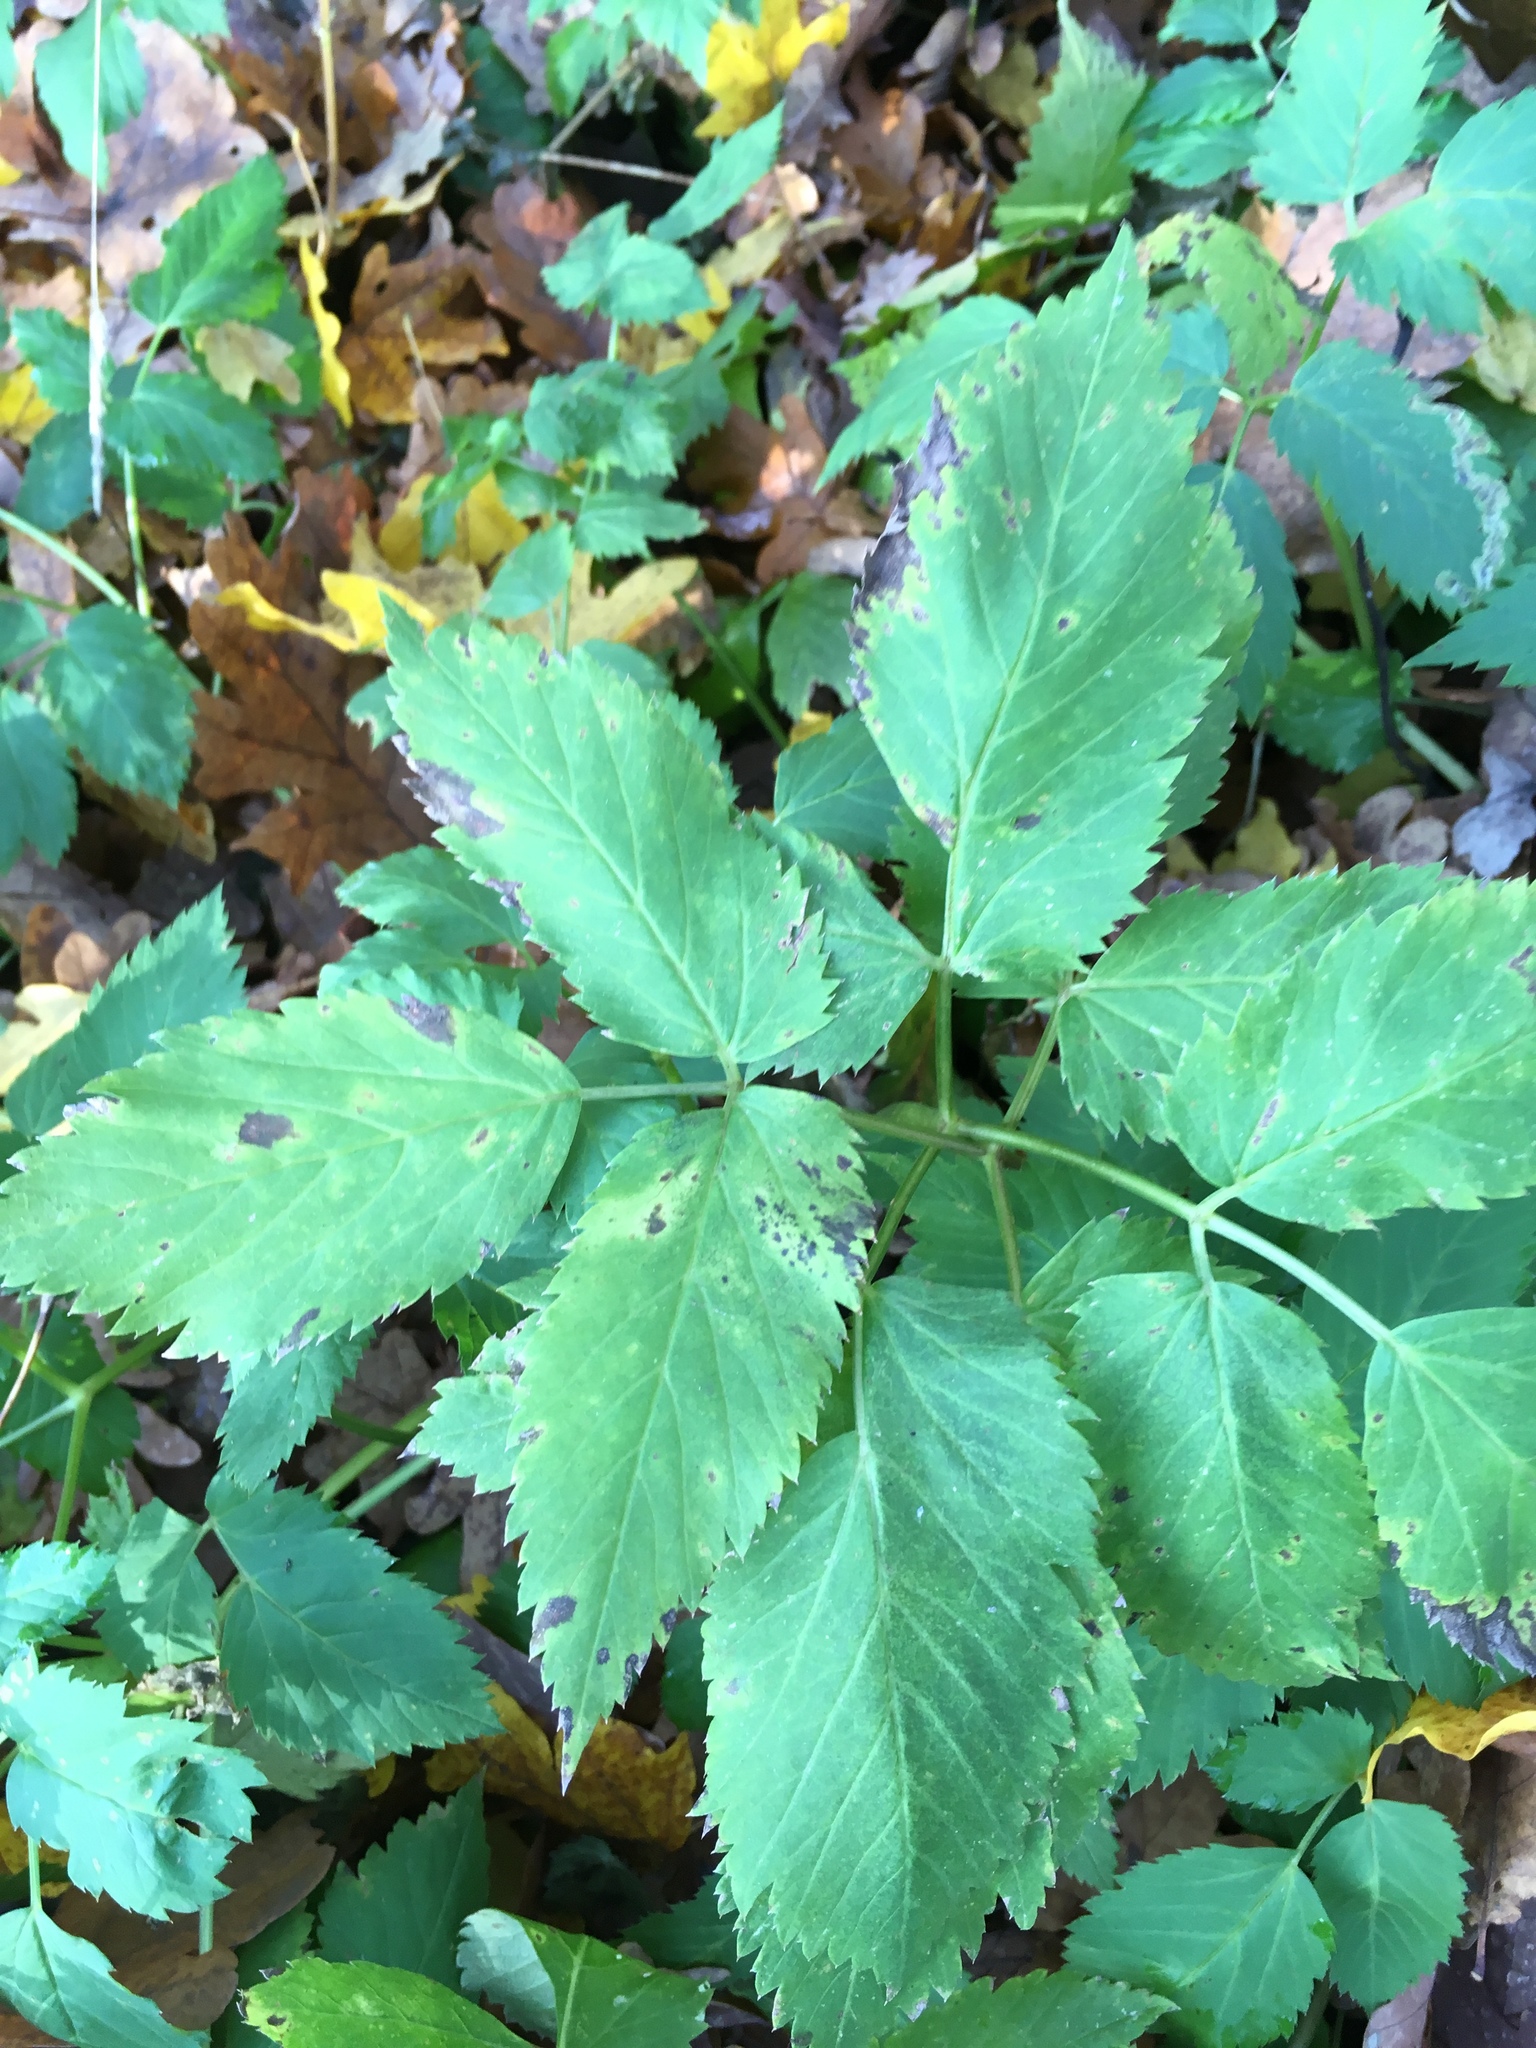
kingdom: Plantae
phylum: Tracheophyta
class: Magnoliopsida
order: Apiales
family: Apiaceae
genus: Aegopodium
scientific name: Aegopodium podagraria
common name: Ground-elder
